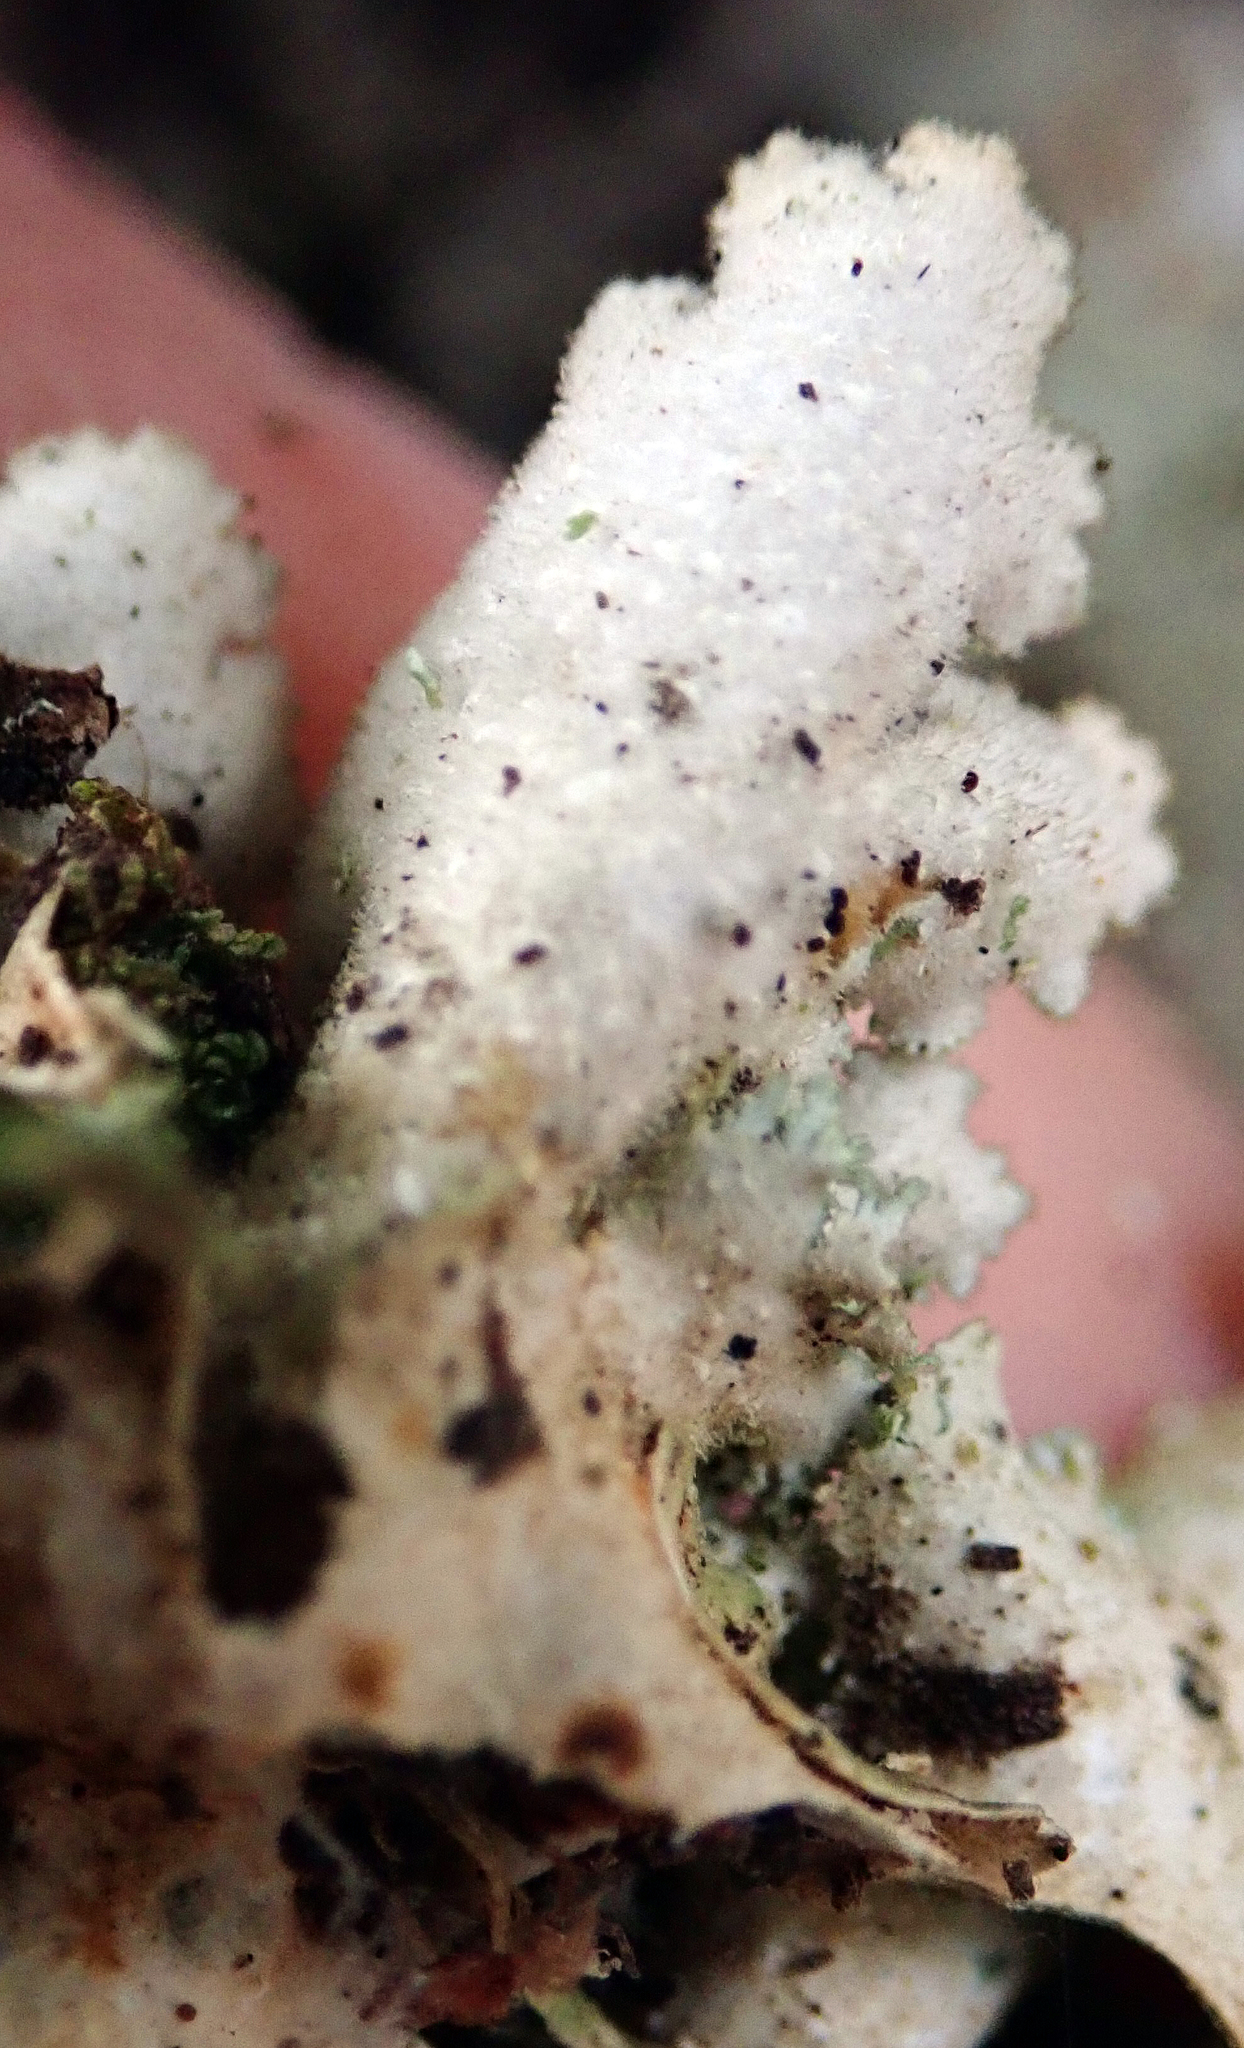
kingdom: Fungi
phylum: Ascomycota
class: Lecanoromycetes
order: Peltigerales
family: Lobariaceae
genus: Pseudocyphellaria
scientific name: Pseudocyphellaria gretae
